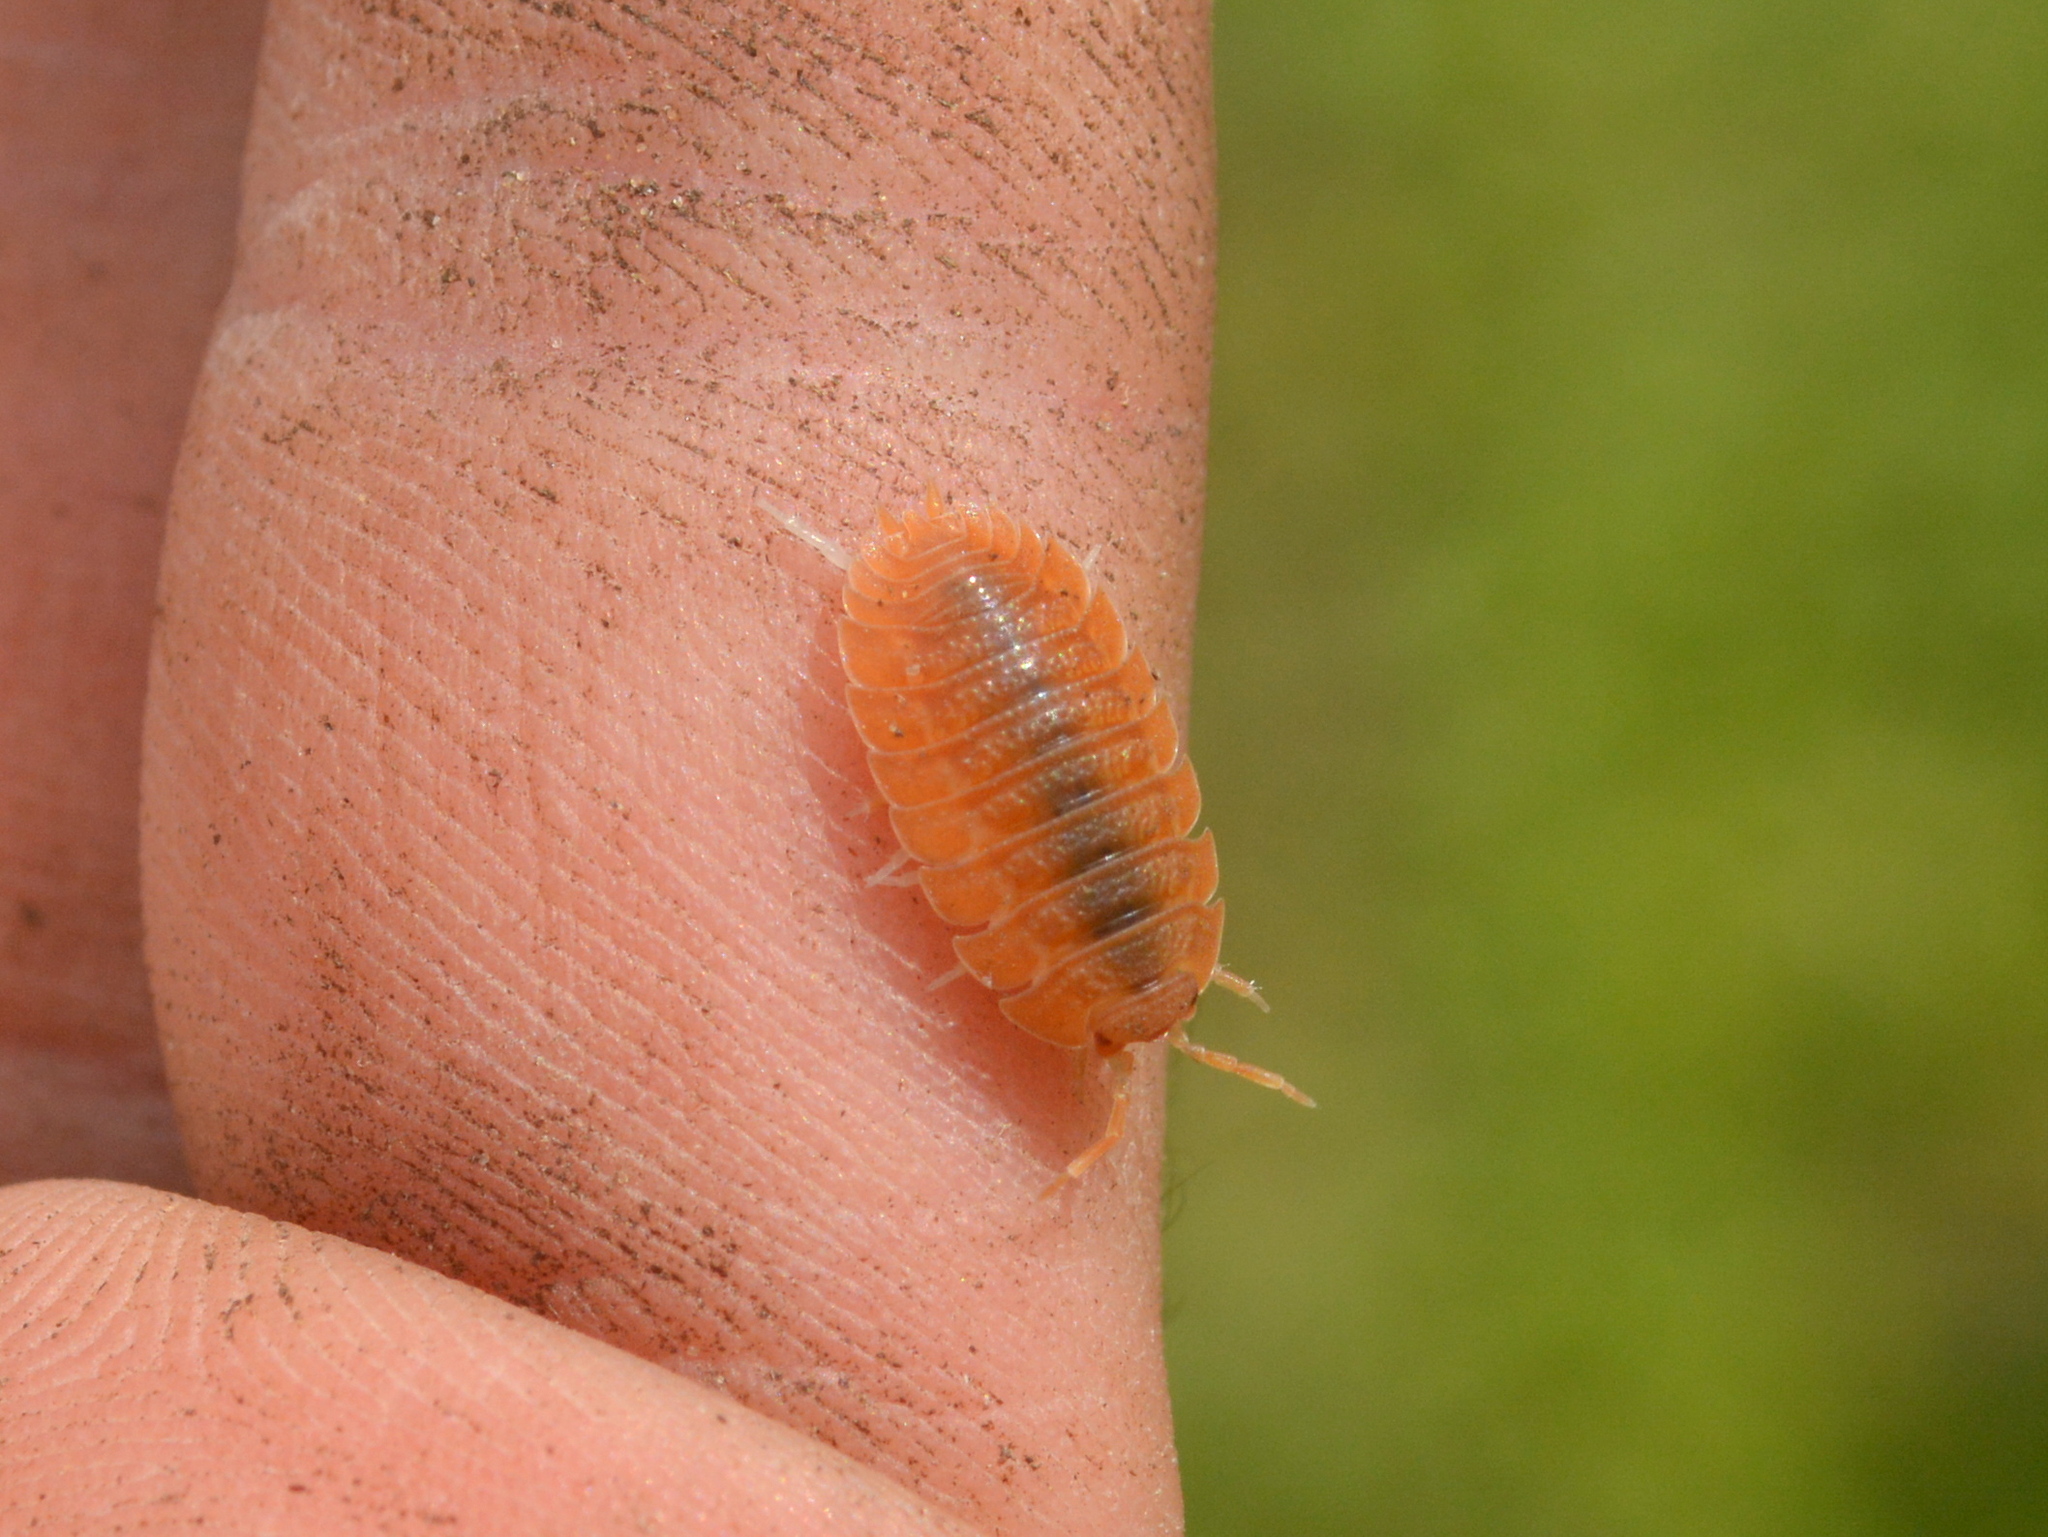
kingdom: Animalia
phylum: Arthropoda
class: Malacostraca
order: Isopoda
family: Porcellionidae
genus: Porcellio
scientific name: Porcellio dilatatus
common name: Isopod
